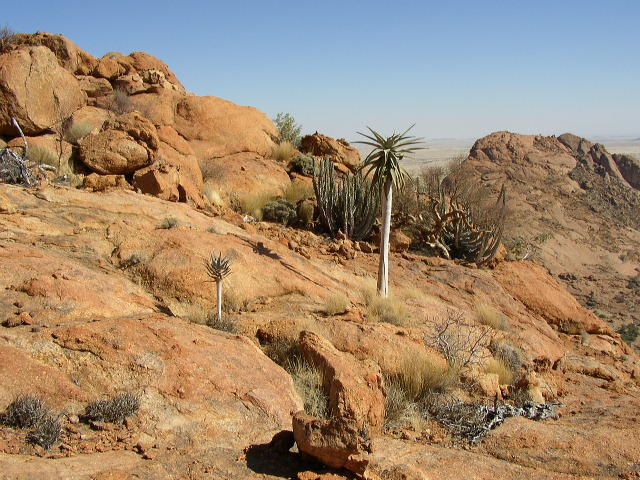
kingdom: Plantae
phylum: Tracheophyta
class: Liliopsida
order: Asparagales
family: Asphodelaceae
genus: Aloidendron
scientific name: Aloidendron dichotomum
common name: Quiver tree
